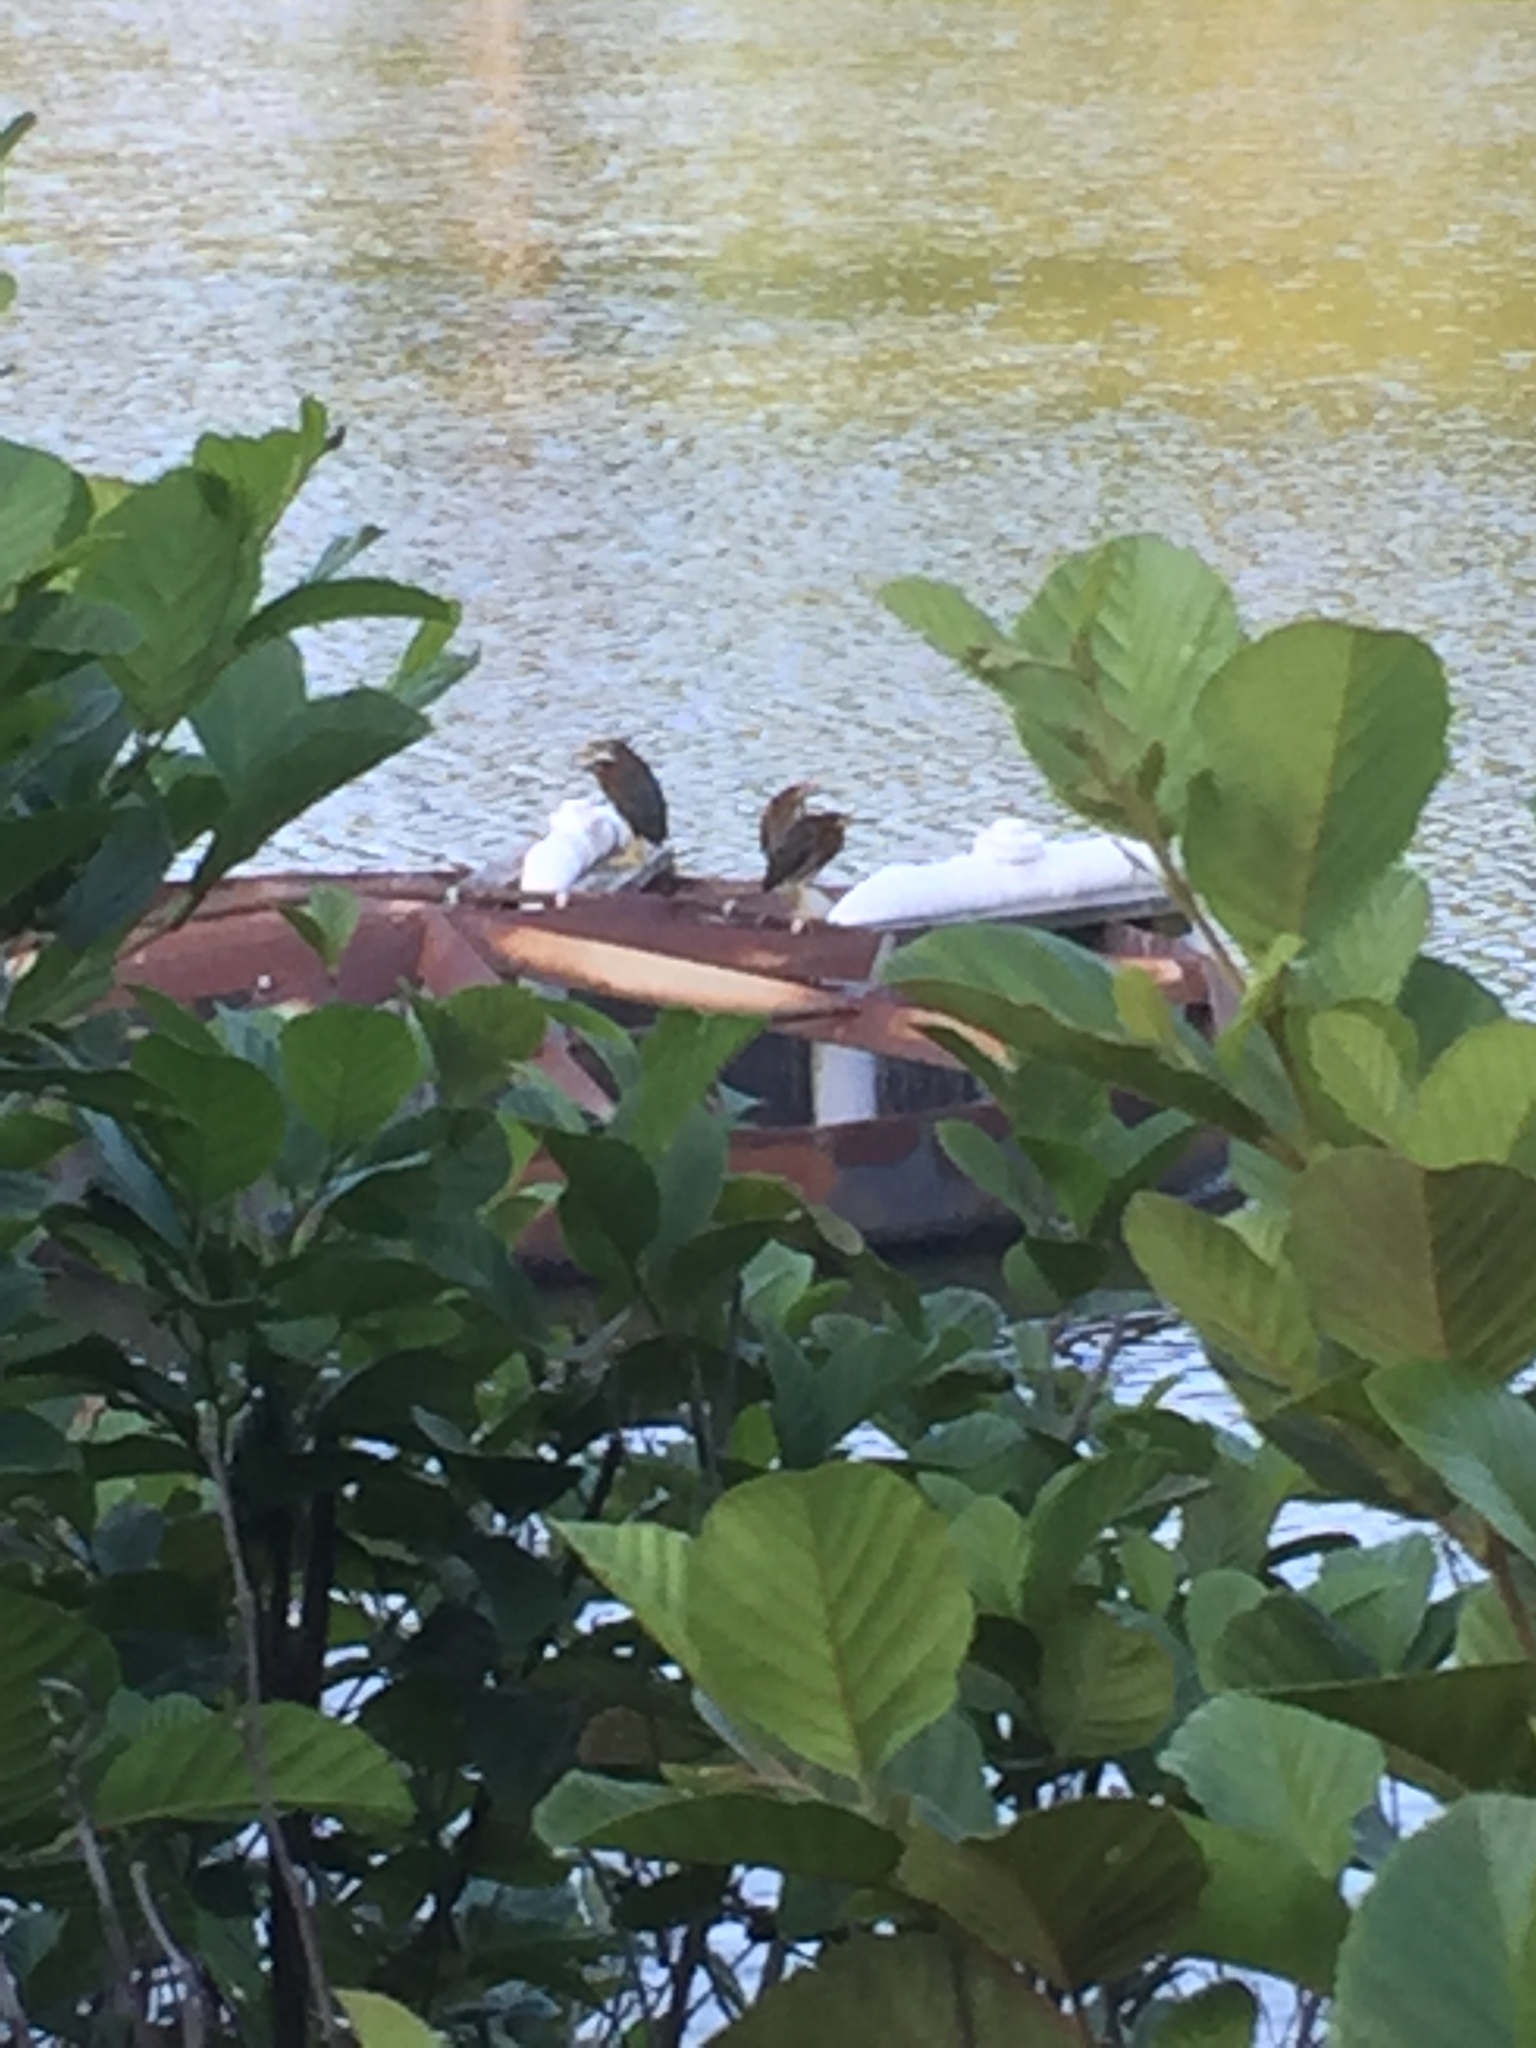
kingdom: Animalia
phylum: Chordata
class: Aves
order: Pelecaniformes
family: Ardeidae
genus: Butorides
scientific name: Butorides virescens
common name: Green heron
